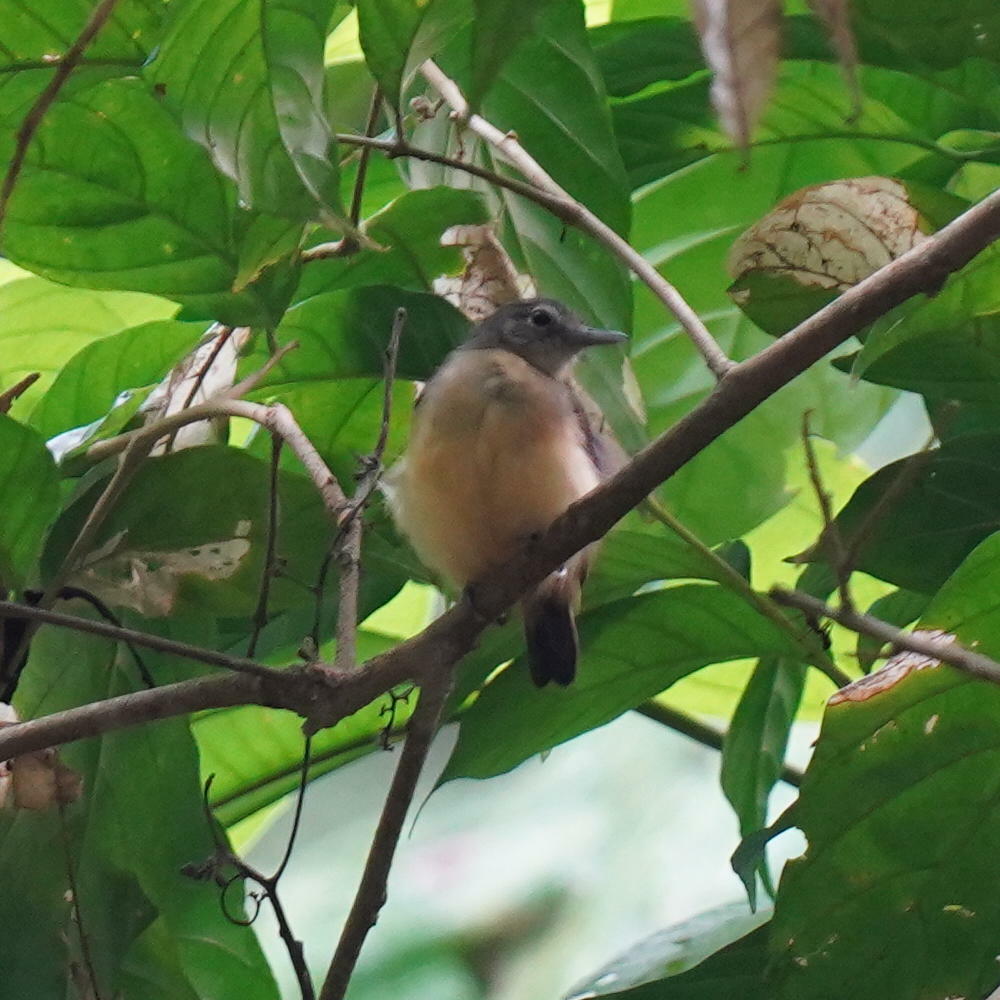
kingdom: Animalia
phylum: Chordata
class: Aves
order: Passeriformes
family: Thamnophilidae
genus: Myrmotherula
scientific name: Myrmotherula axillaris
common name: White-flanked antwren
